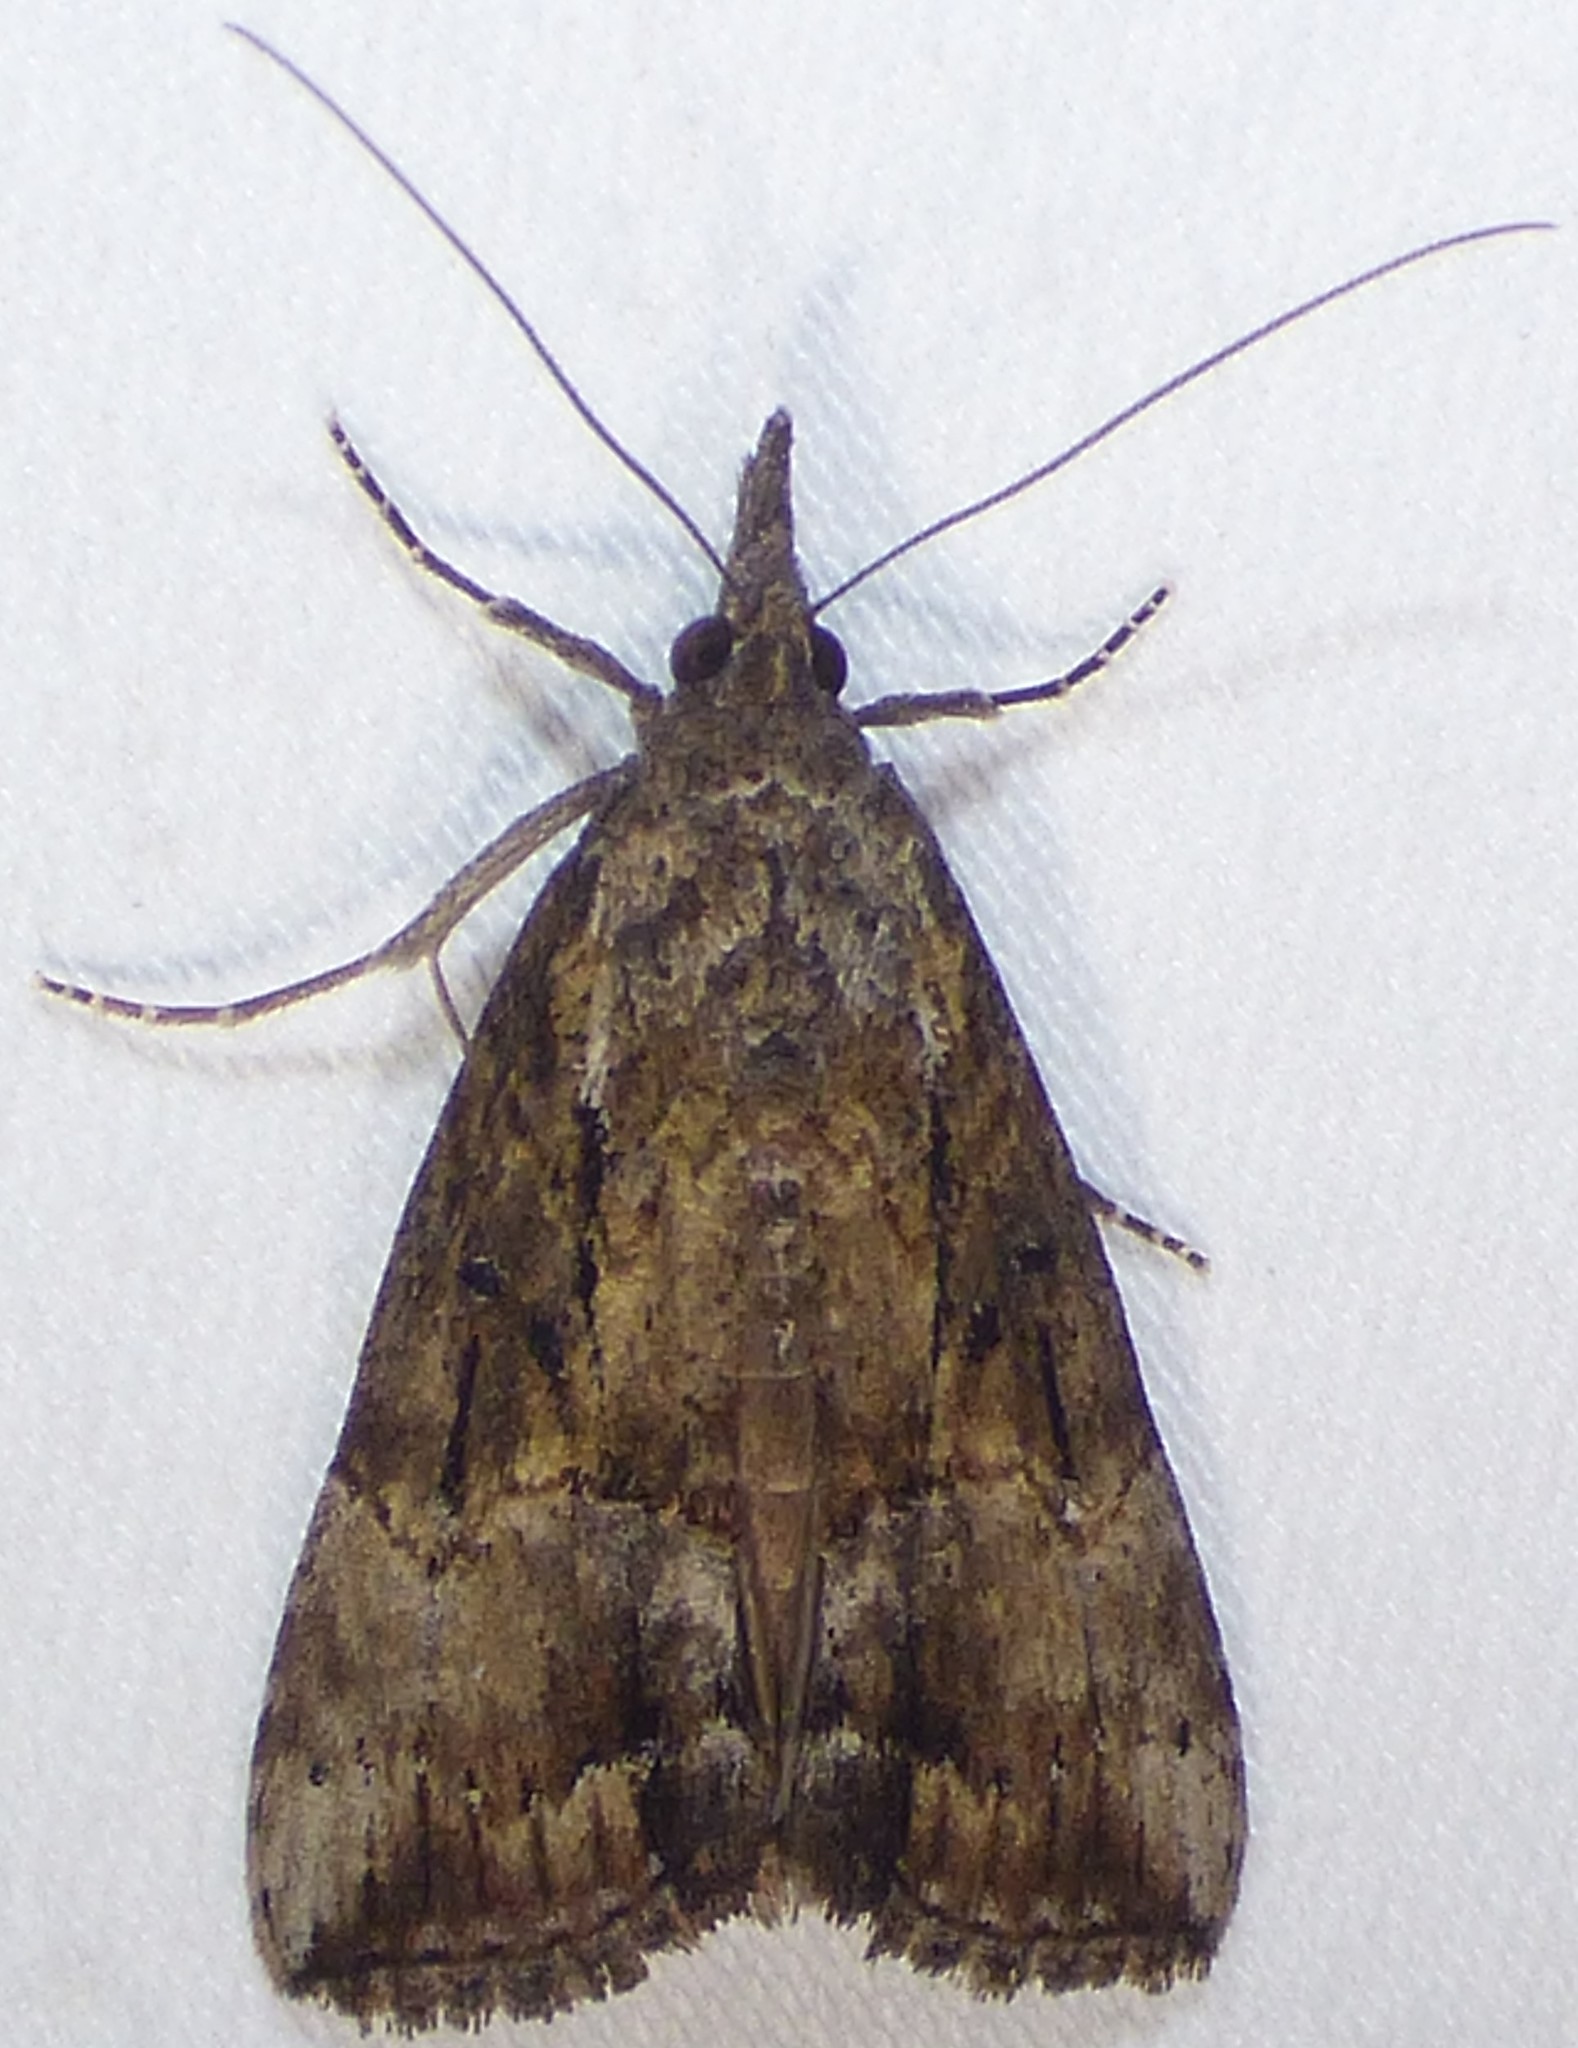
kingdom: Animalia
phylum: Arthropoda
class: Insecta
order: Lepidoptera
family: Erebidae
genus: Hypena
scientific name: Hypena scabra
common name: Green cloverworm
